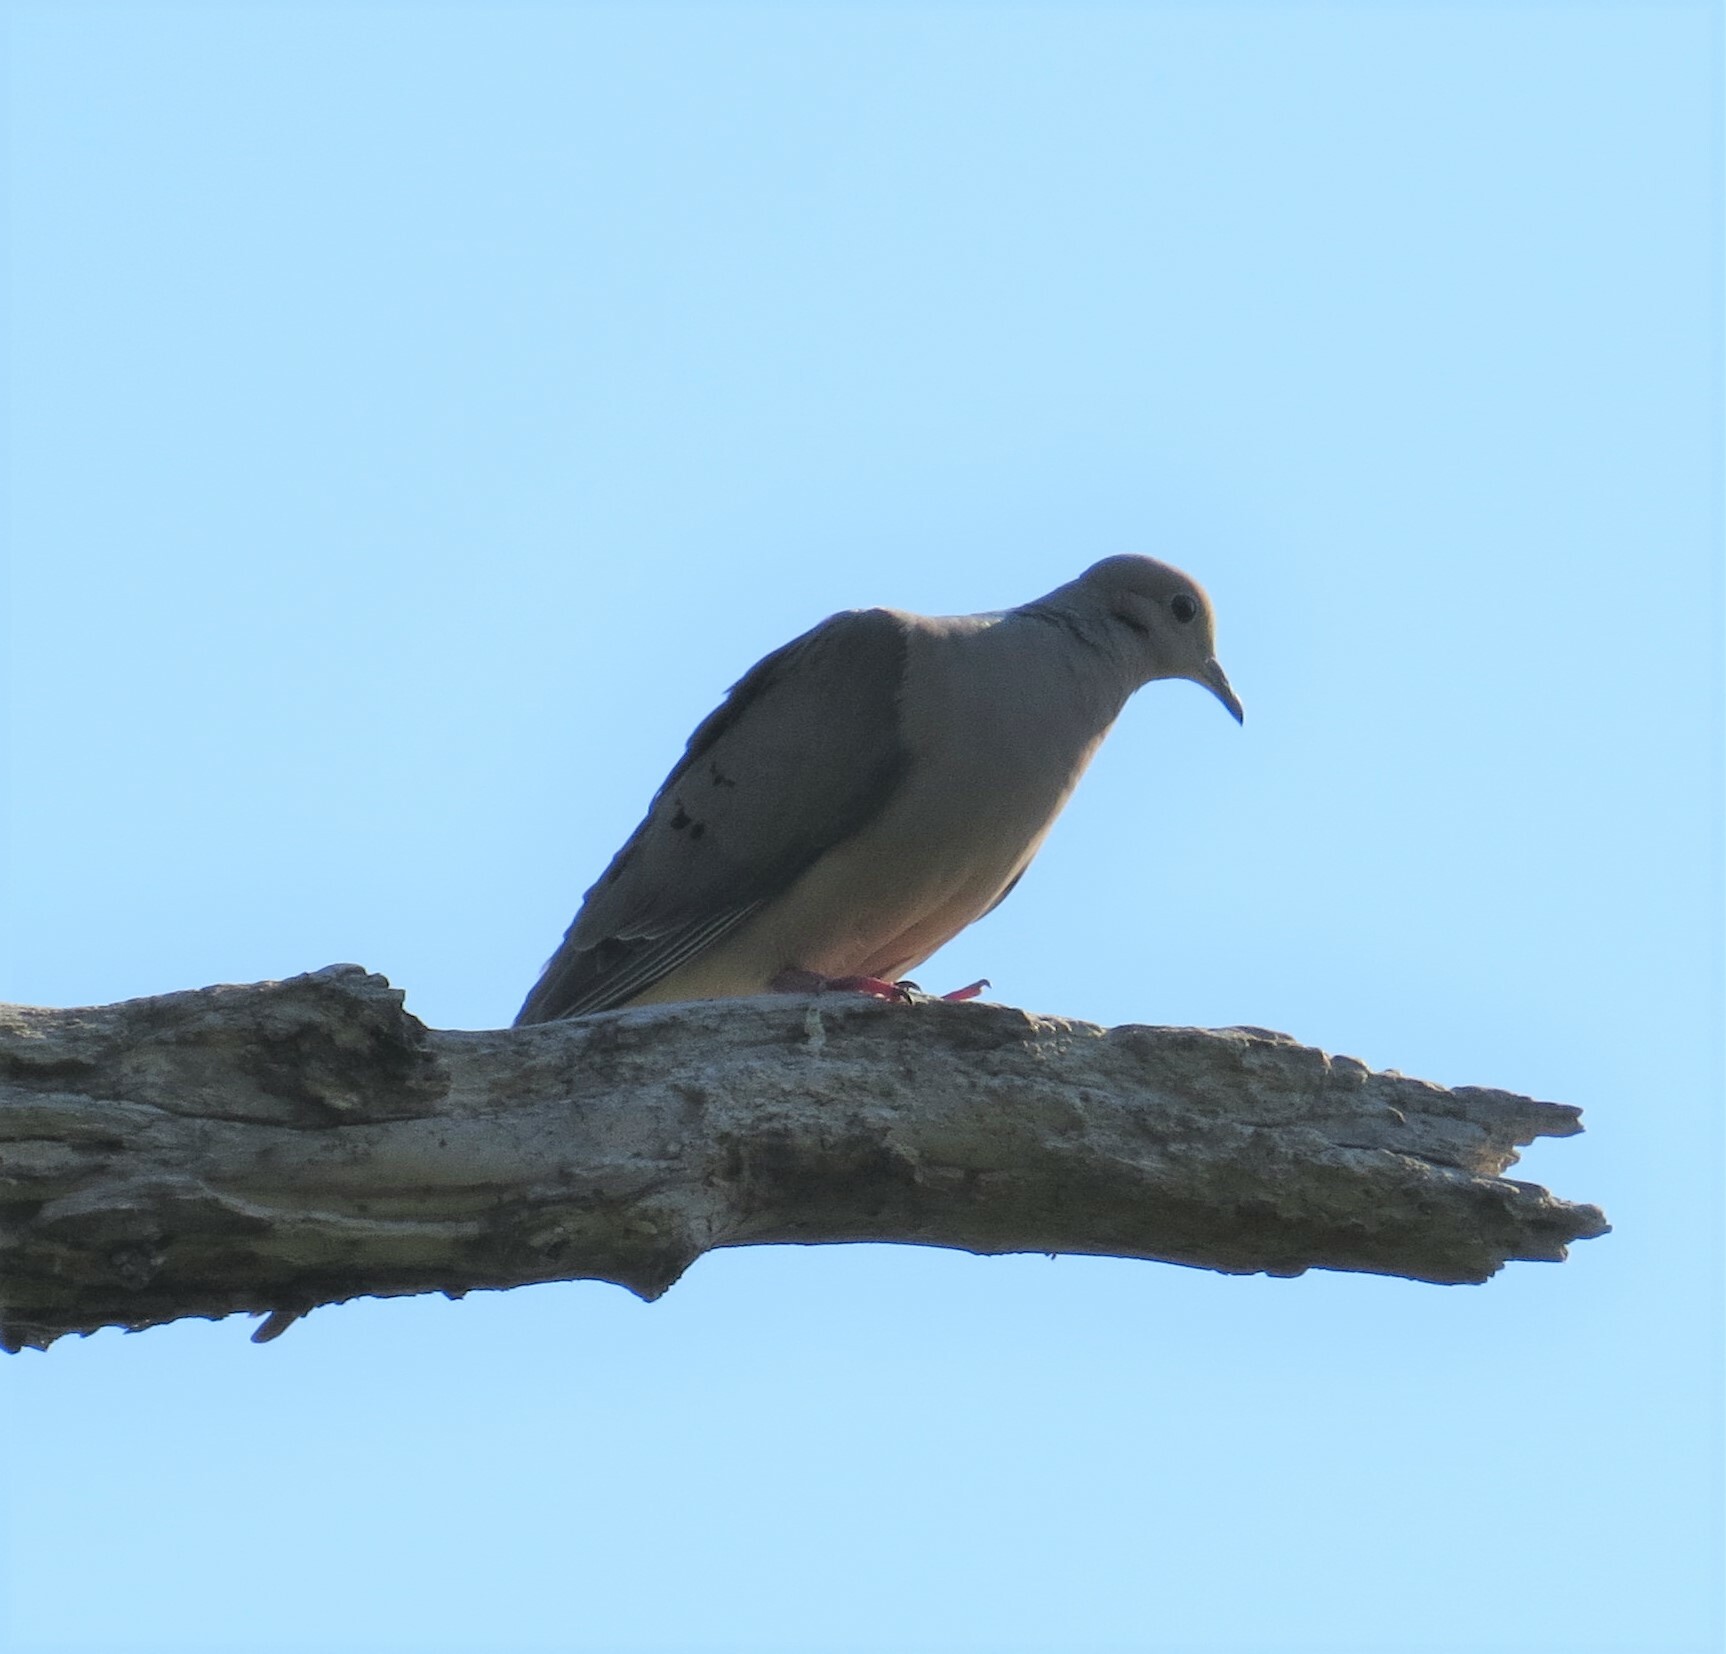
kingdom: Animalia
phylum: Chordata
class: Aves
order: Columbiformes
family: Columbidae
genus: Zenaida
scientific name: Zenaida macroura
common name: Mourning dove
